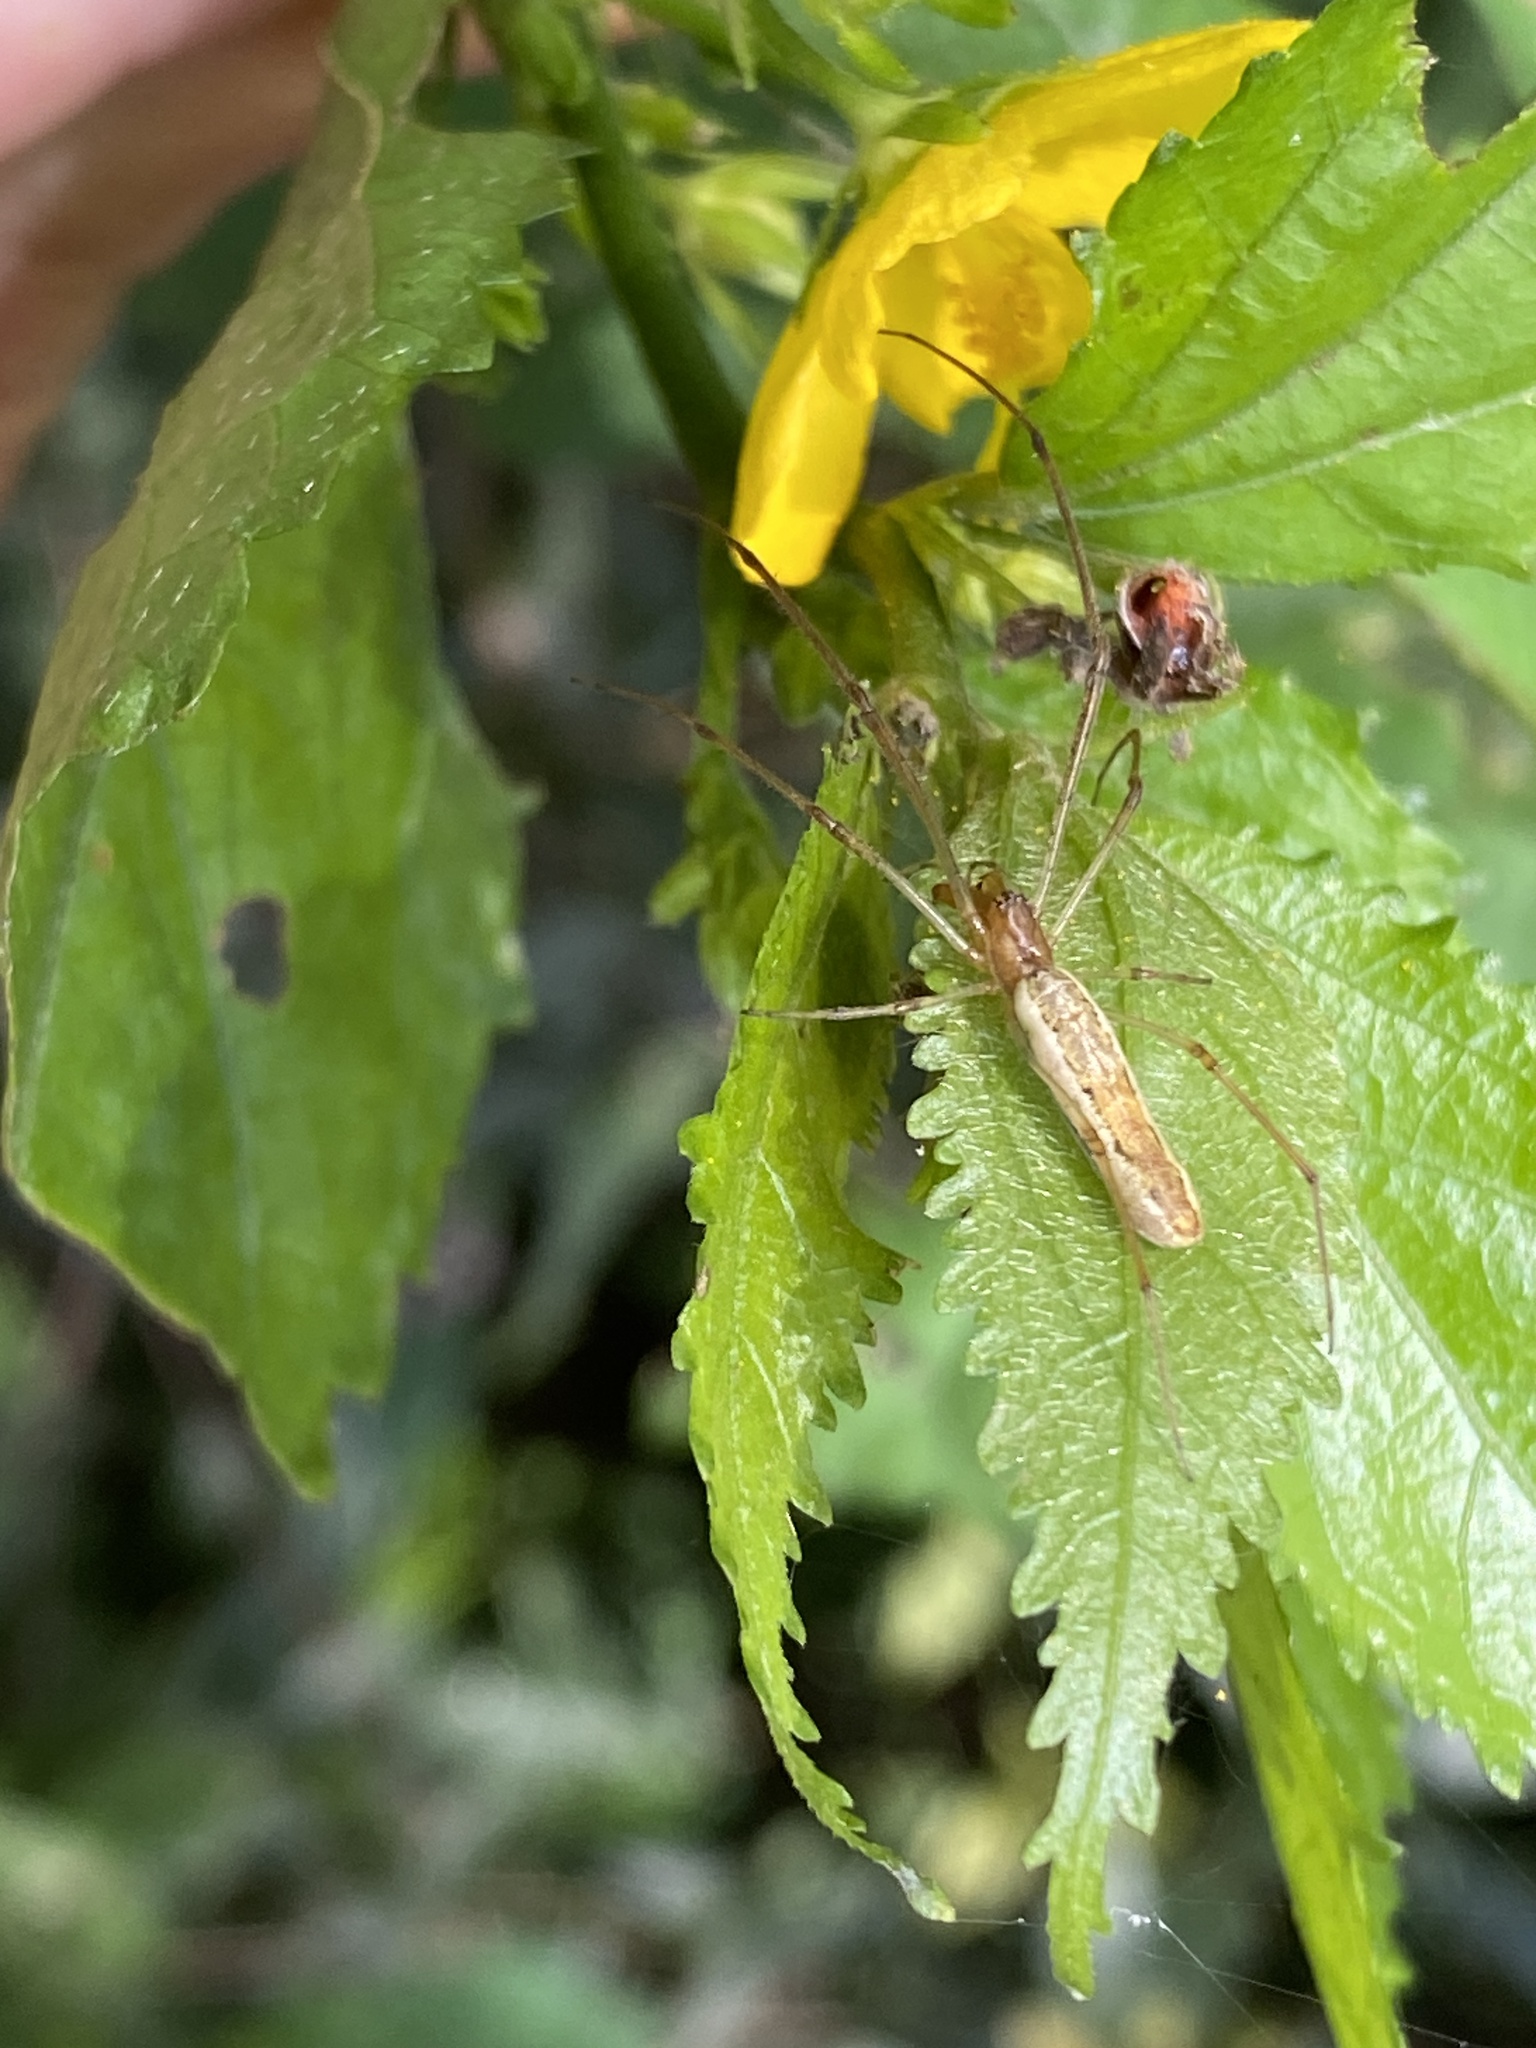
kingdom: Animalia
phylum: Arthropoda
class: Arachnida
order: Araneae
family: Tetragnathidae
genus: Tetragnatha
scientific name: Tetragnatha
